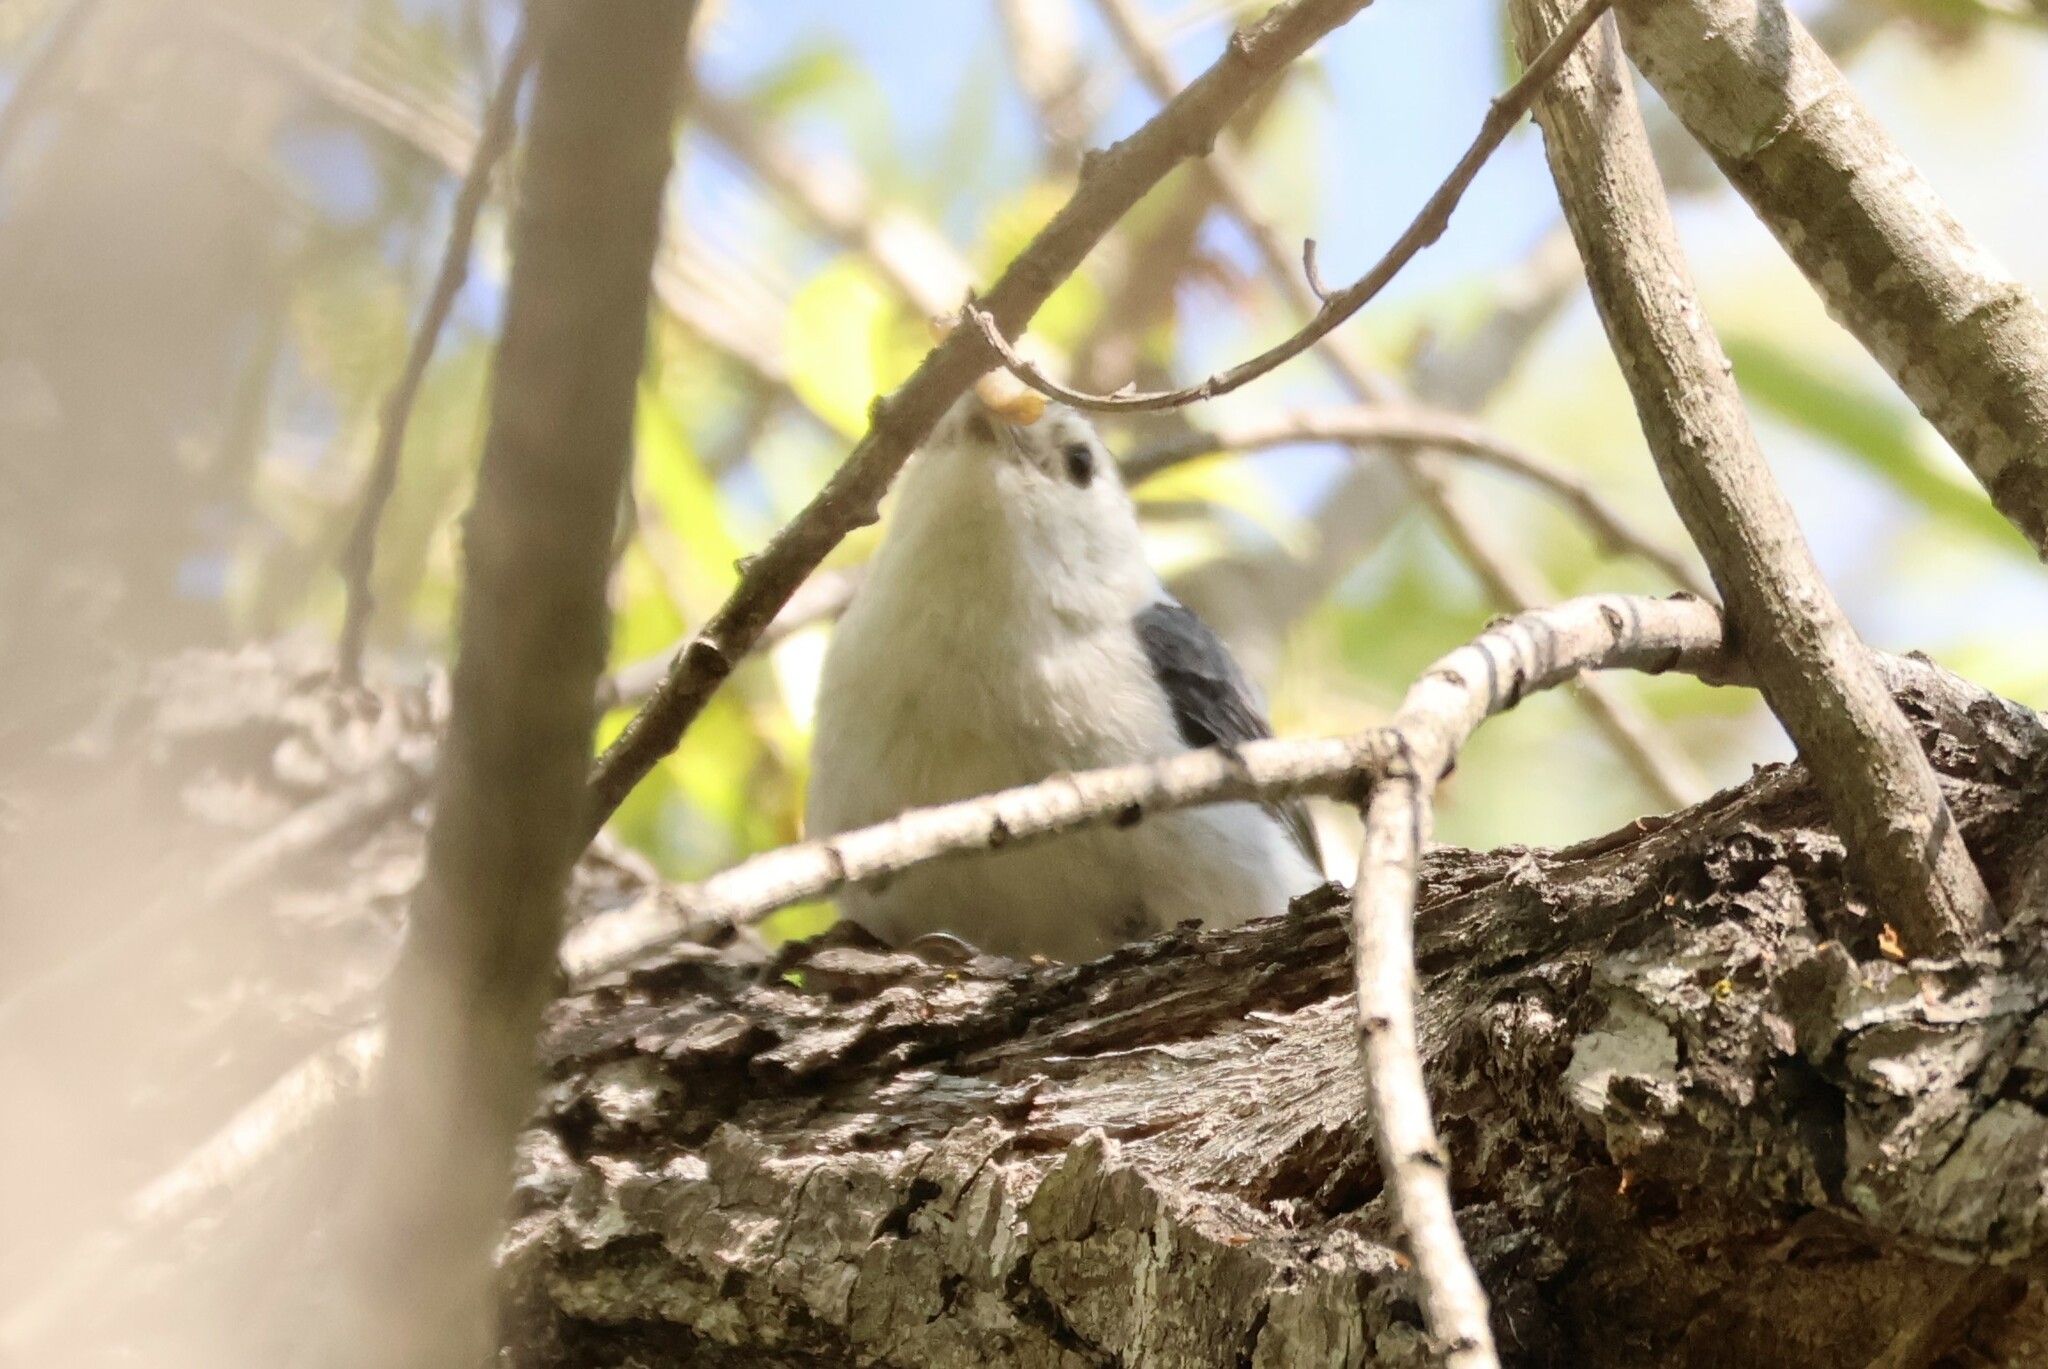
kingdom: Animalia
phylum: Chordata
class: Aves
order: Passeriformes
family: Sittidae
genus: Sitta
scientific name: Sitta carolinensis
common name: White-breasted nuthatch
